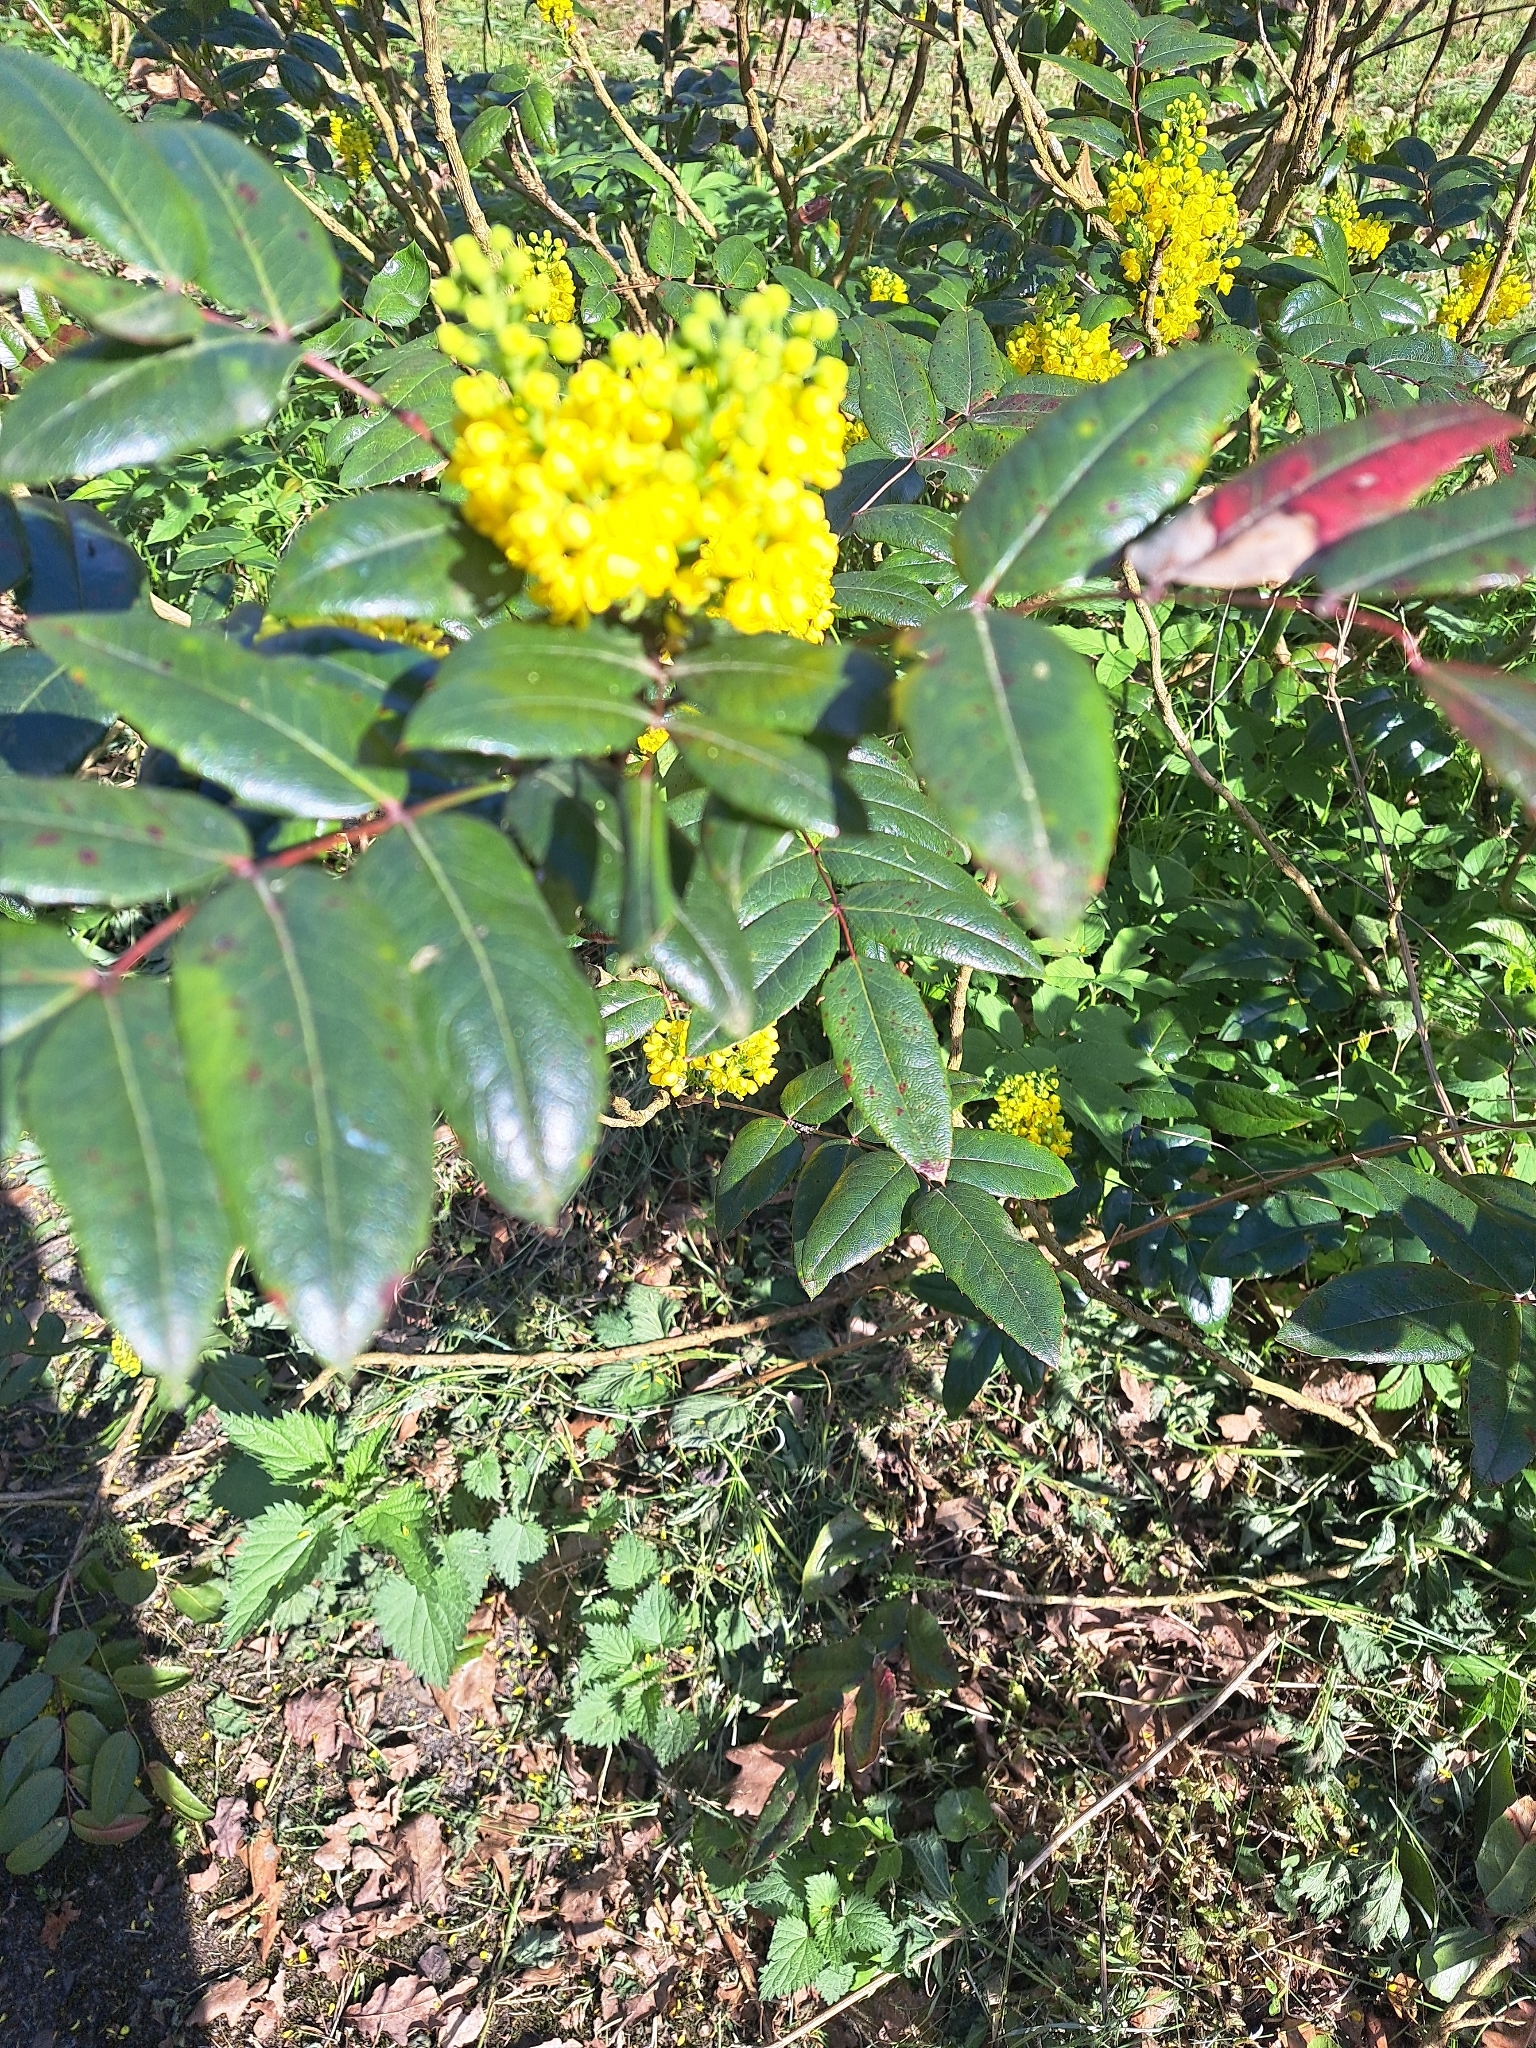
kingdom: Plantae
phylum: Tracheophyta
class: Magnoliopsida
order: Ranunculales
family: Berberidaceae
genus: Mahonia
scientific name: Mahonia aquifolium
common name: Oregon-grape
